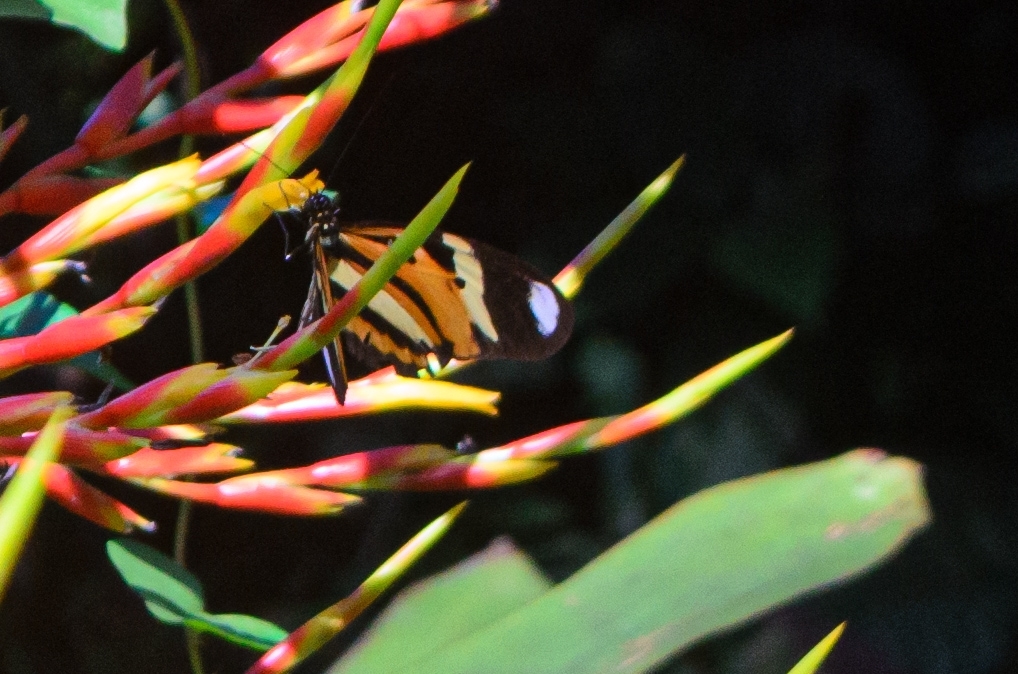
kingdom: Animalia
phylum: Arthropoda
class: Insecta
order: Lepidoptera
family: Nymphalidae
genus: Heliconius
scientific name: Heliconius ethilla
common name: Ethilia longwing
